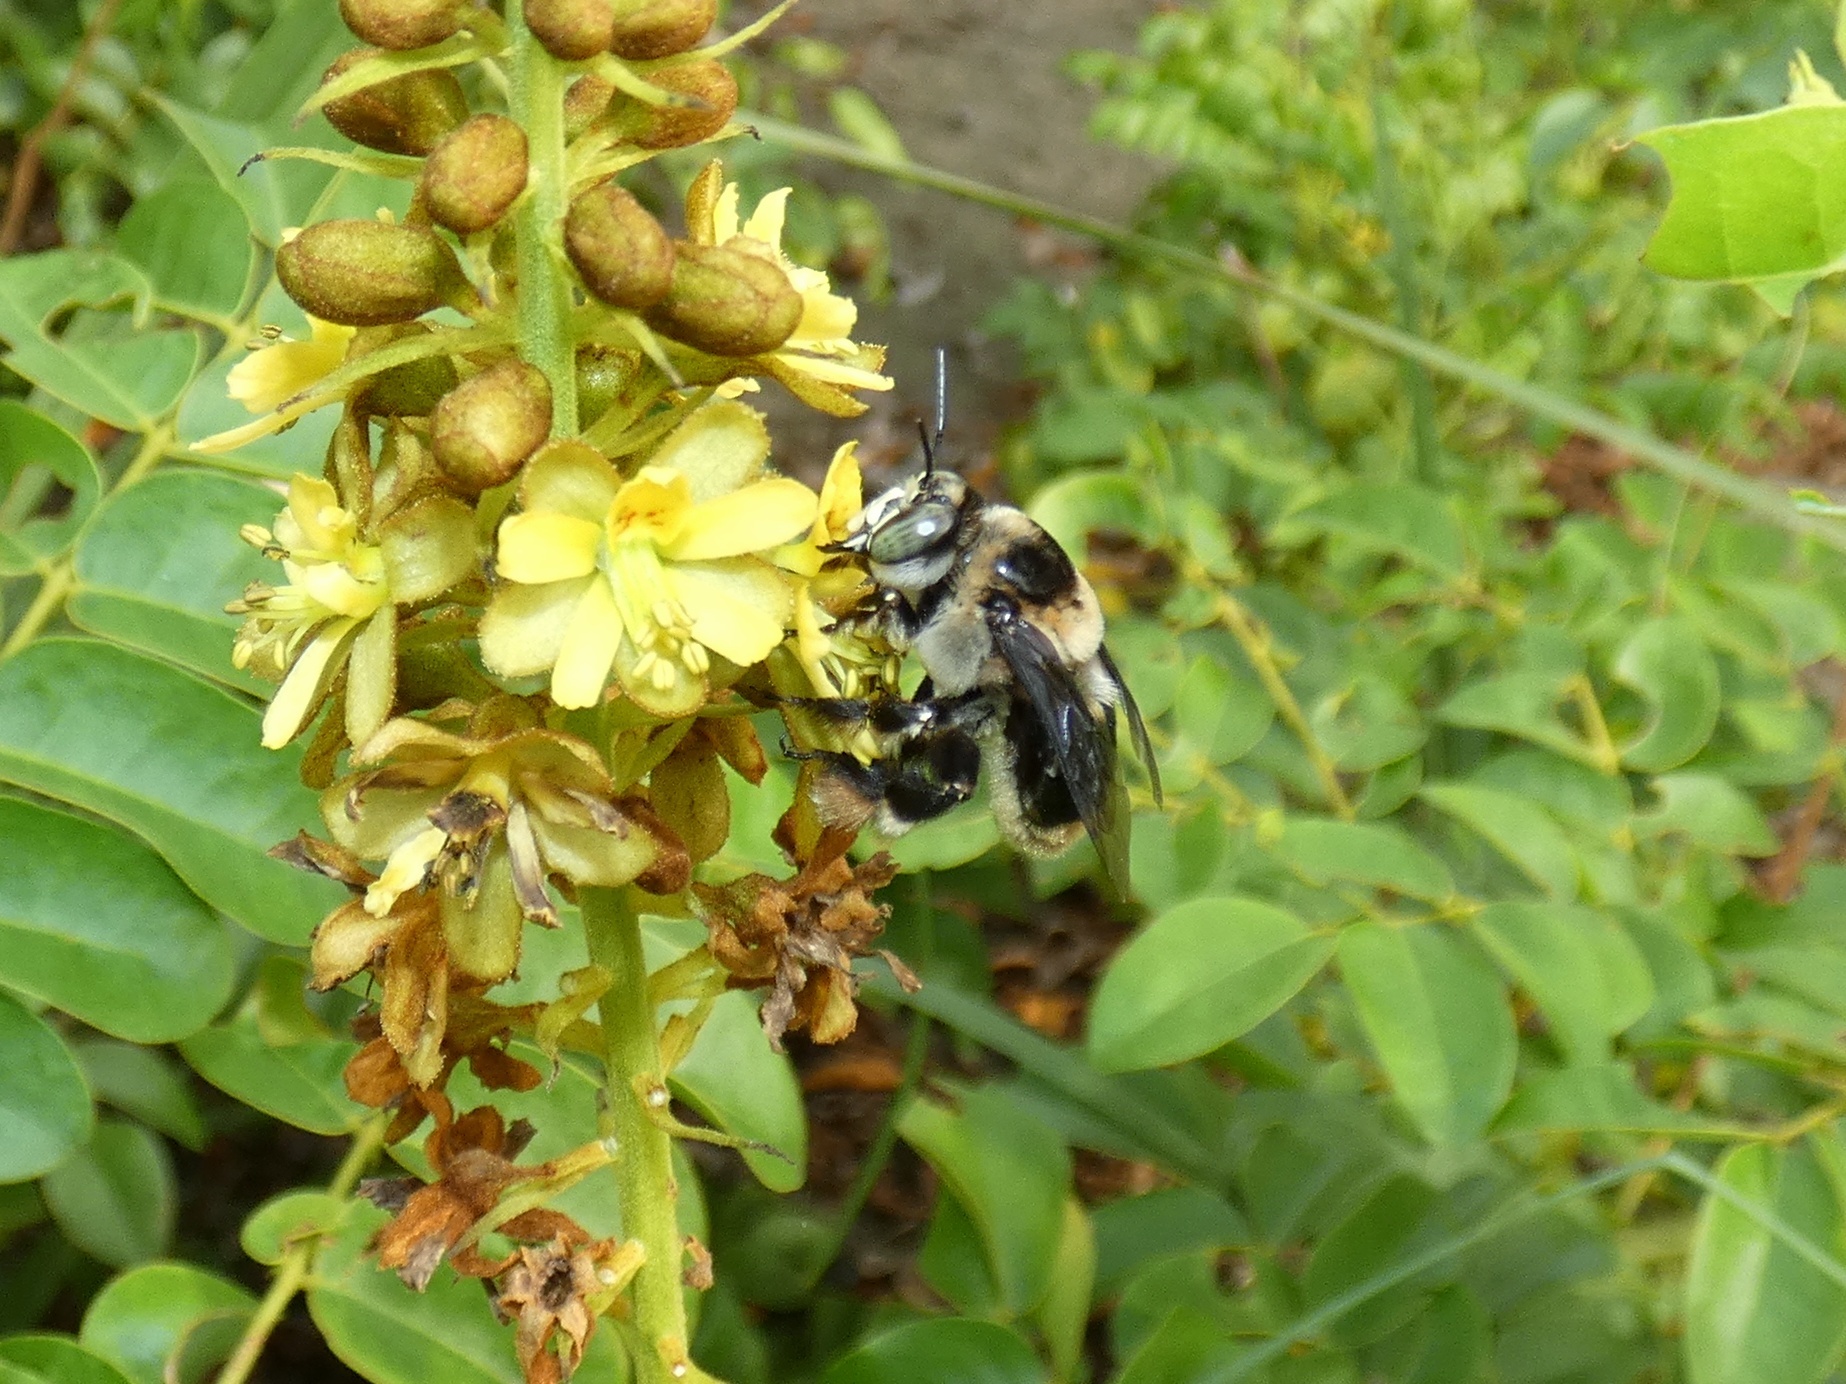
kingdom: Animalia
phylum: Arthropoda
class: Insecta
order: Hymenoptera
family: Apidae
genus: Centris
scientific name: Centris flavifrons
